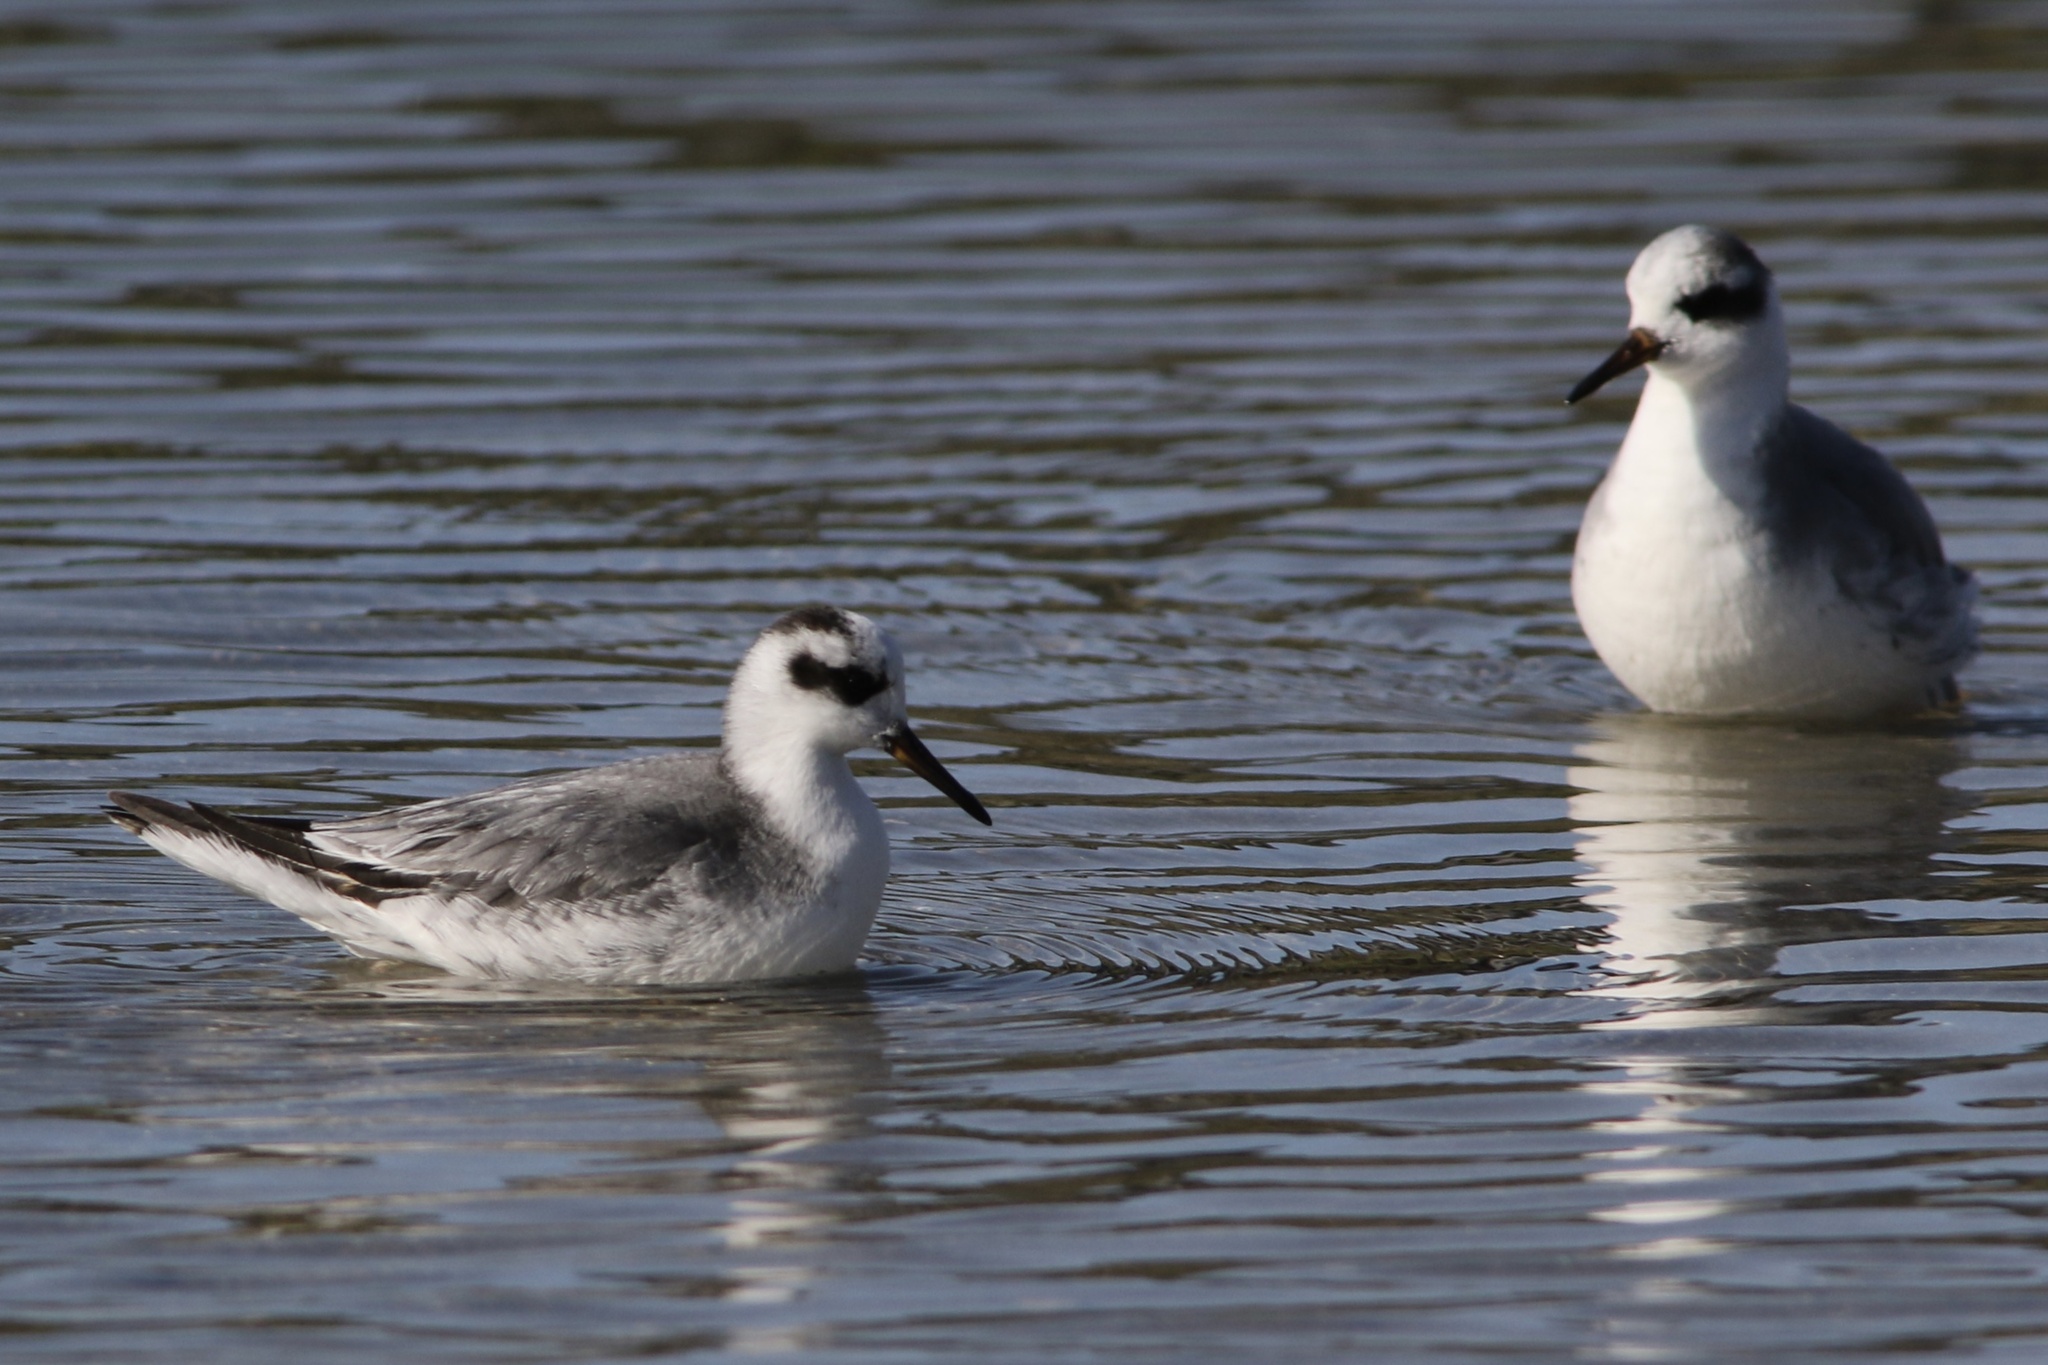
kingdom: Animalia
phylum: Chordata
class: Aves
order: Charadriiformes
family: Scolopacidae
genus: Phalaropus
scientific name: Phalaropus fulicarius
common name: Red phalarope
